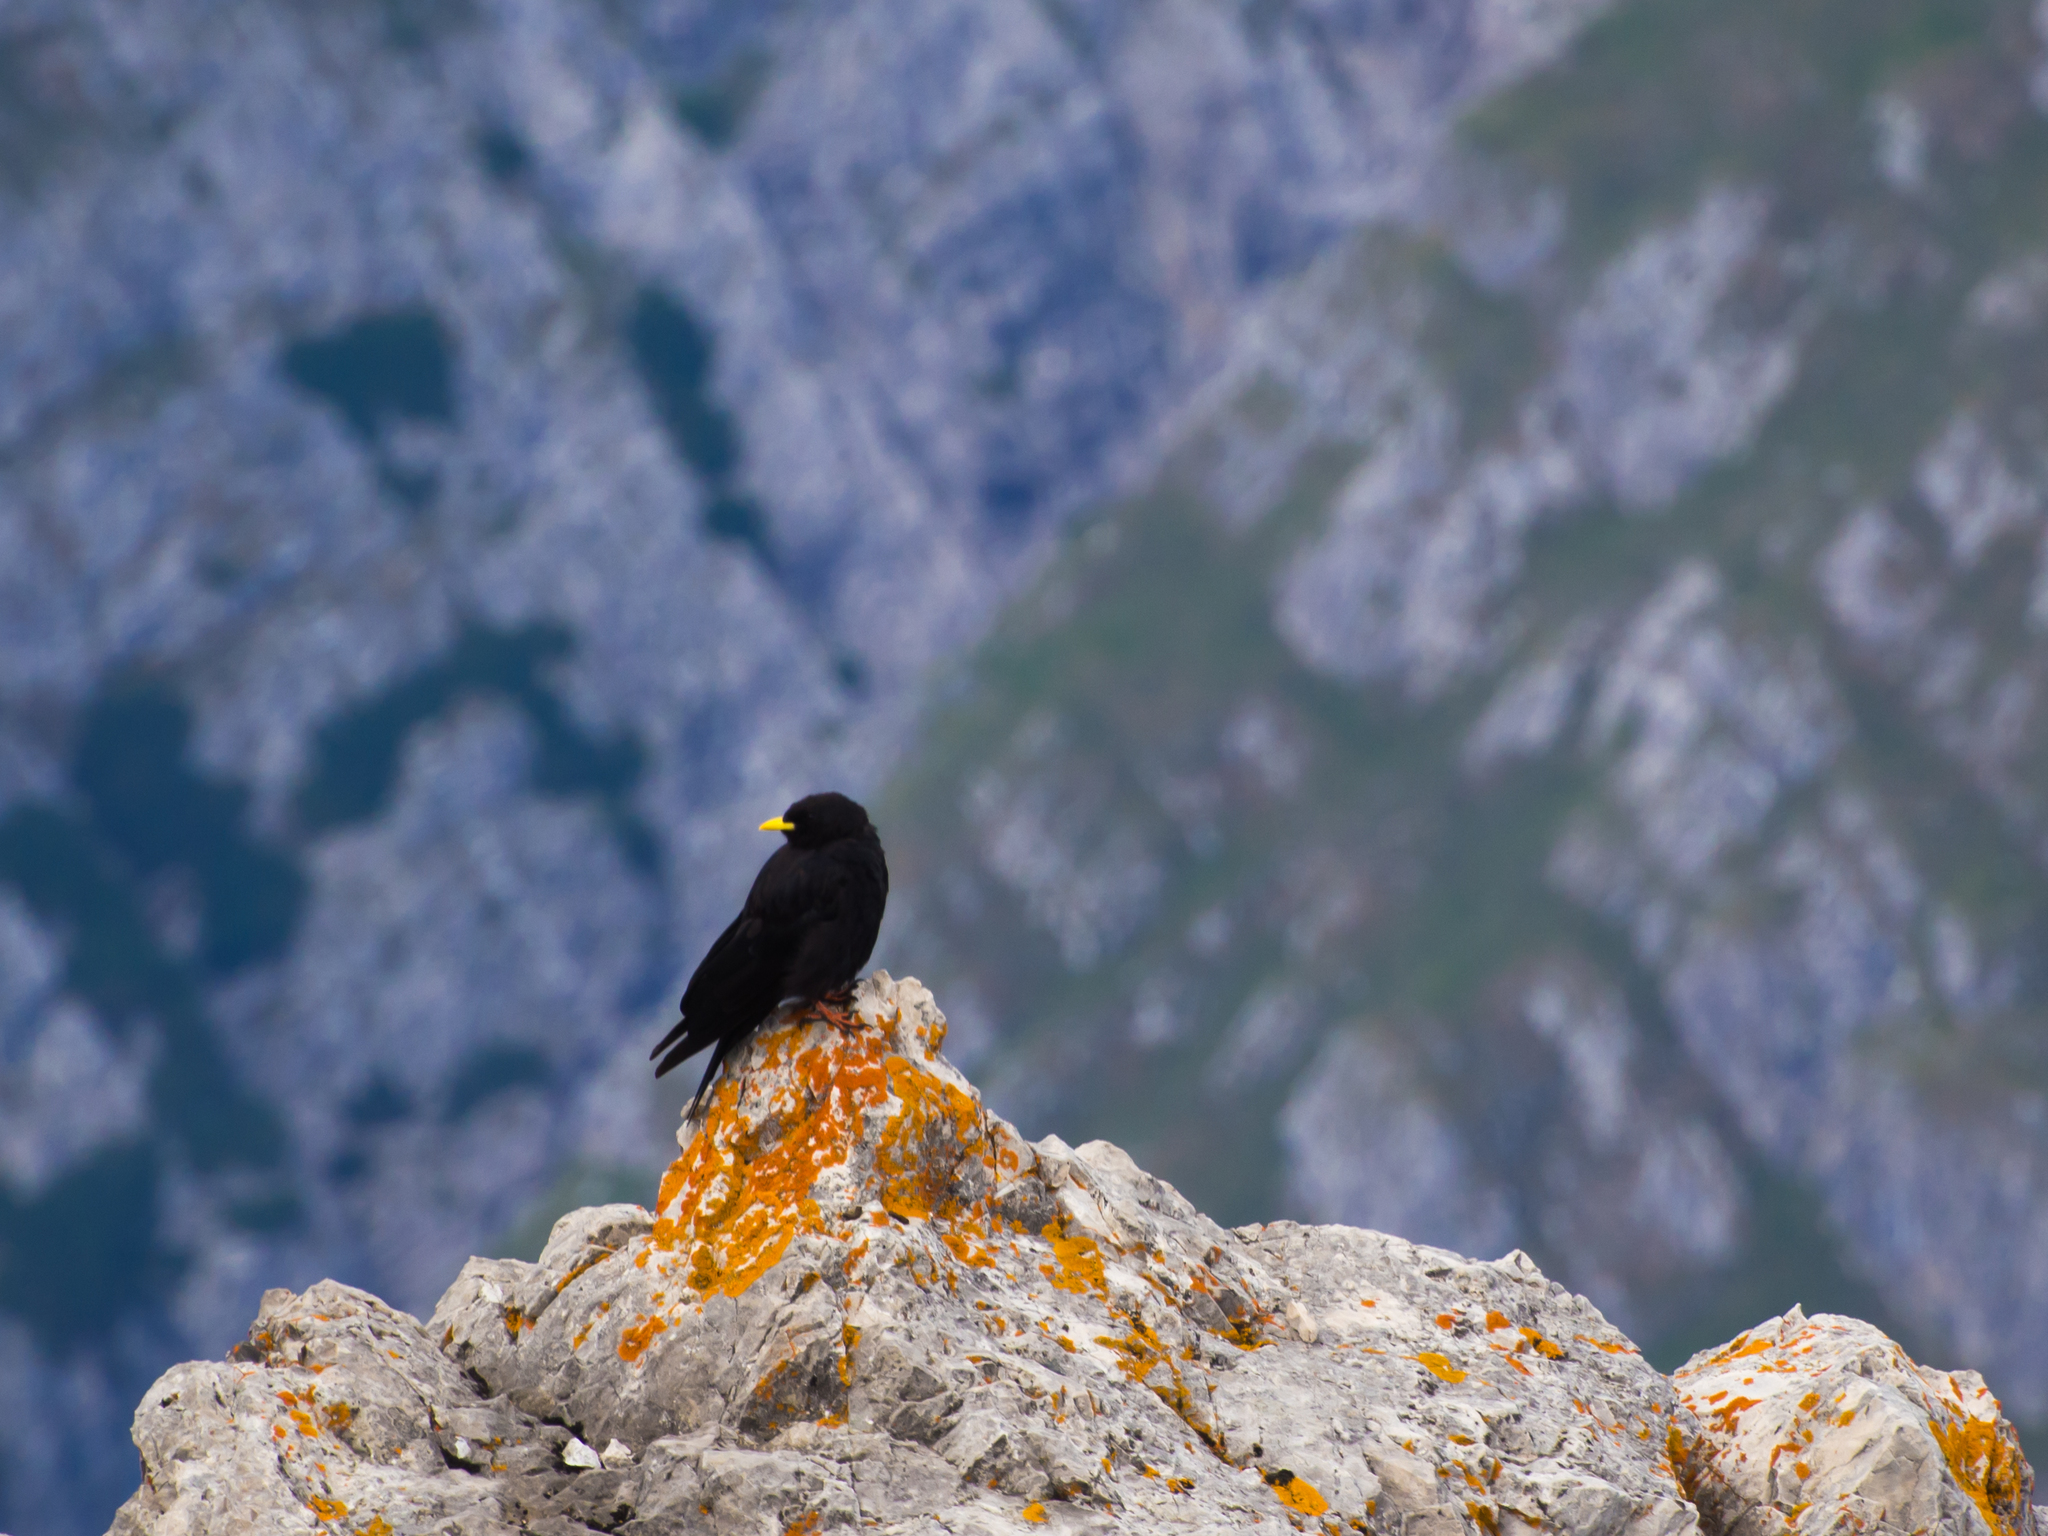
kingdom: Animalia
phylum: Chordata
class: Aves
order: Passeriformes
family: Corvidae
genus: Pyrrhocorax
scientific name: Pyrrhocorax graculus
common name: Alpine chough
